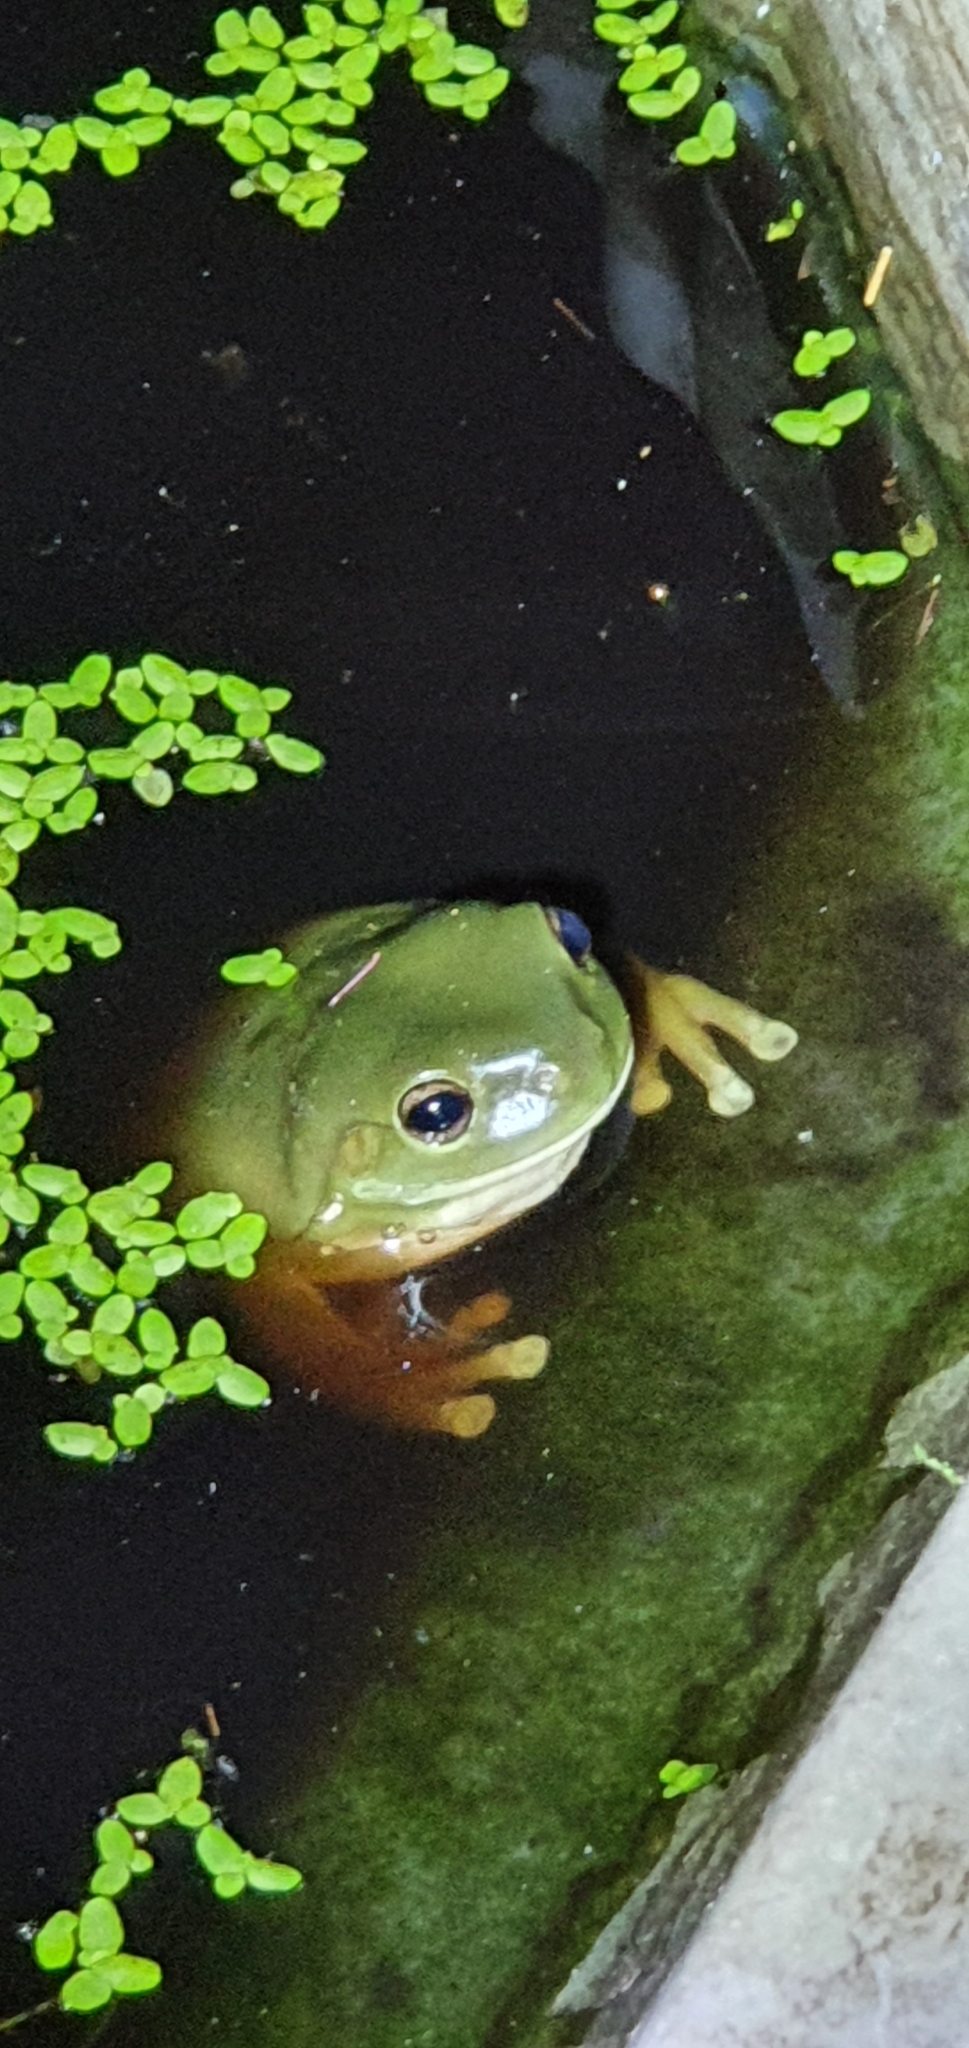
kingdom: Animalia
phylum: Chordata
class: Amphibia
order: Anura
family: Pelodryadidae
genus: Ranoidea
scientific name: Ranoidea caerulea
